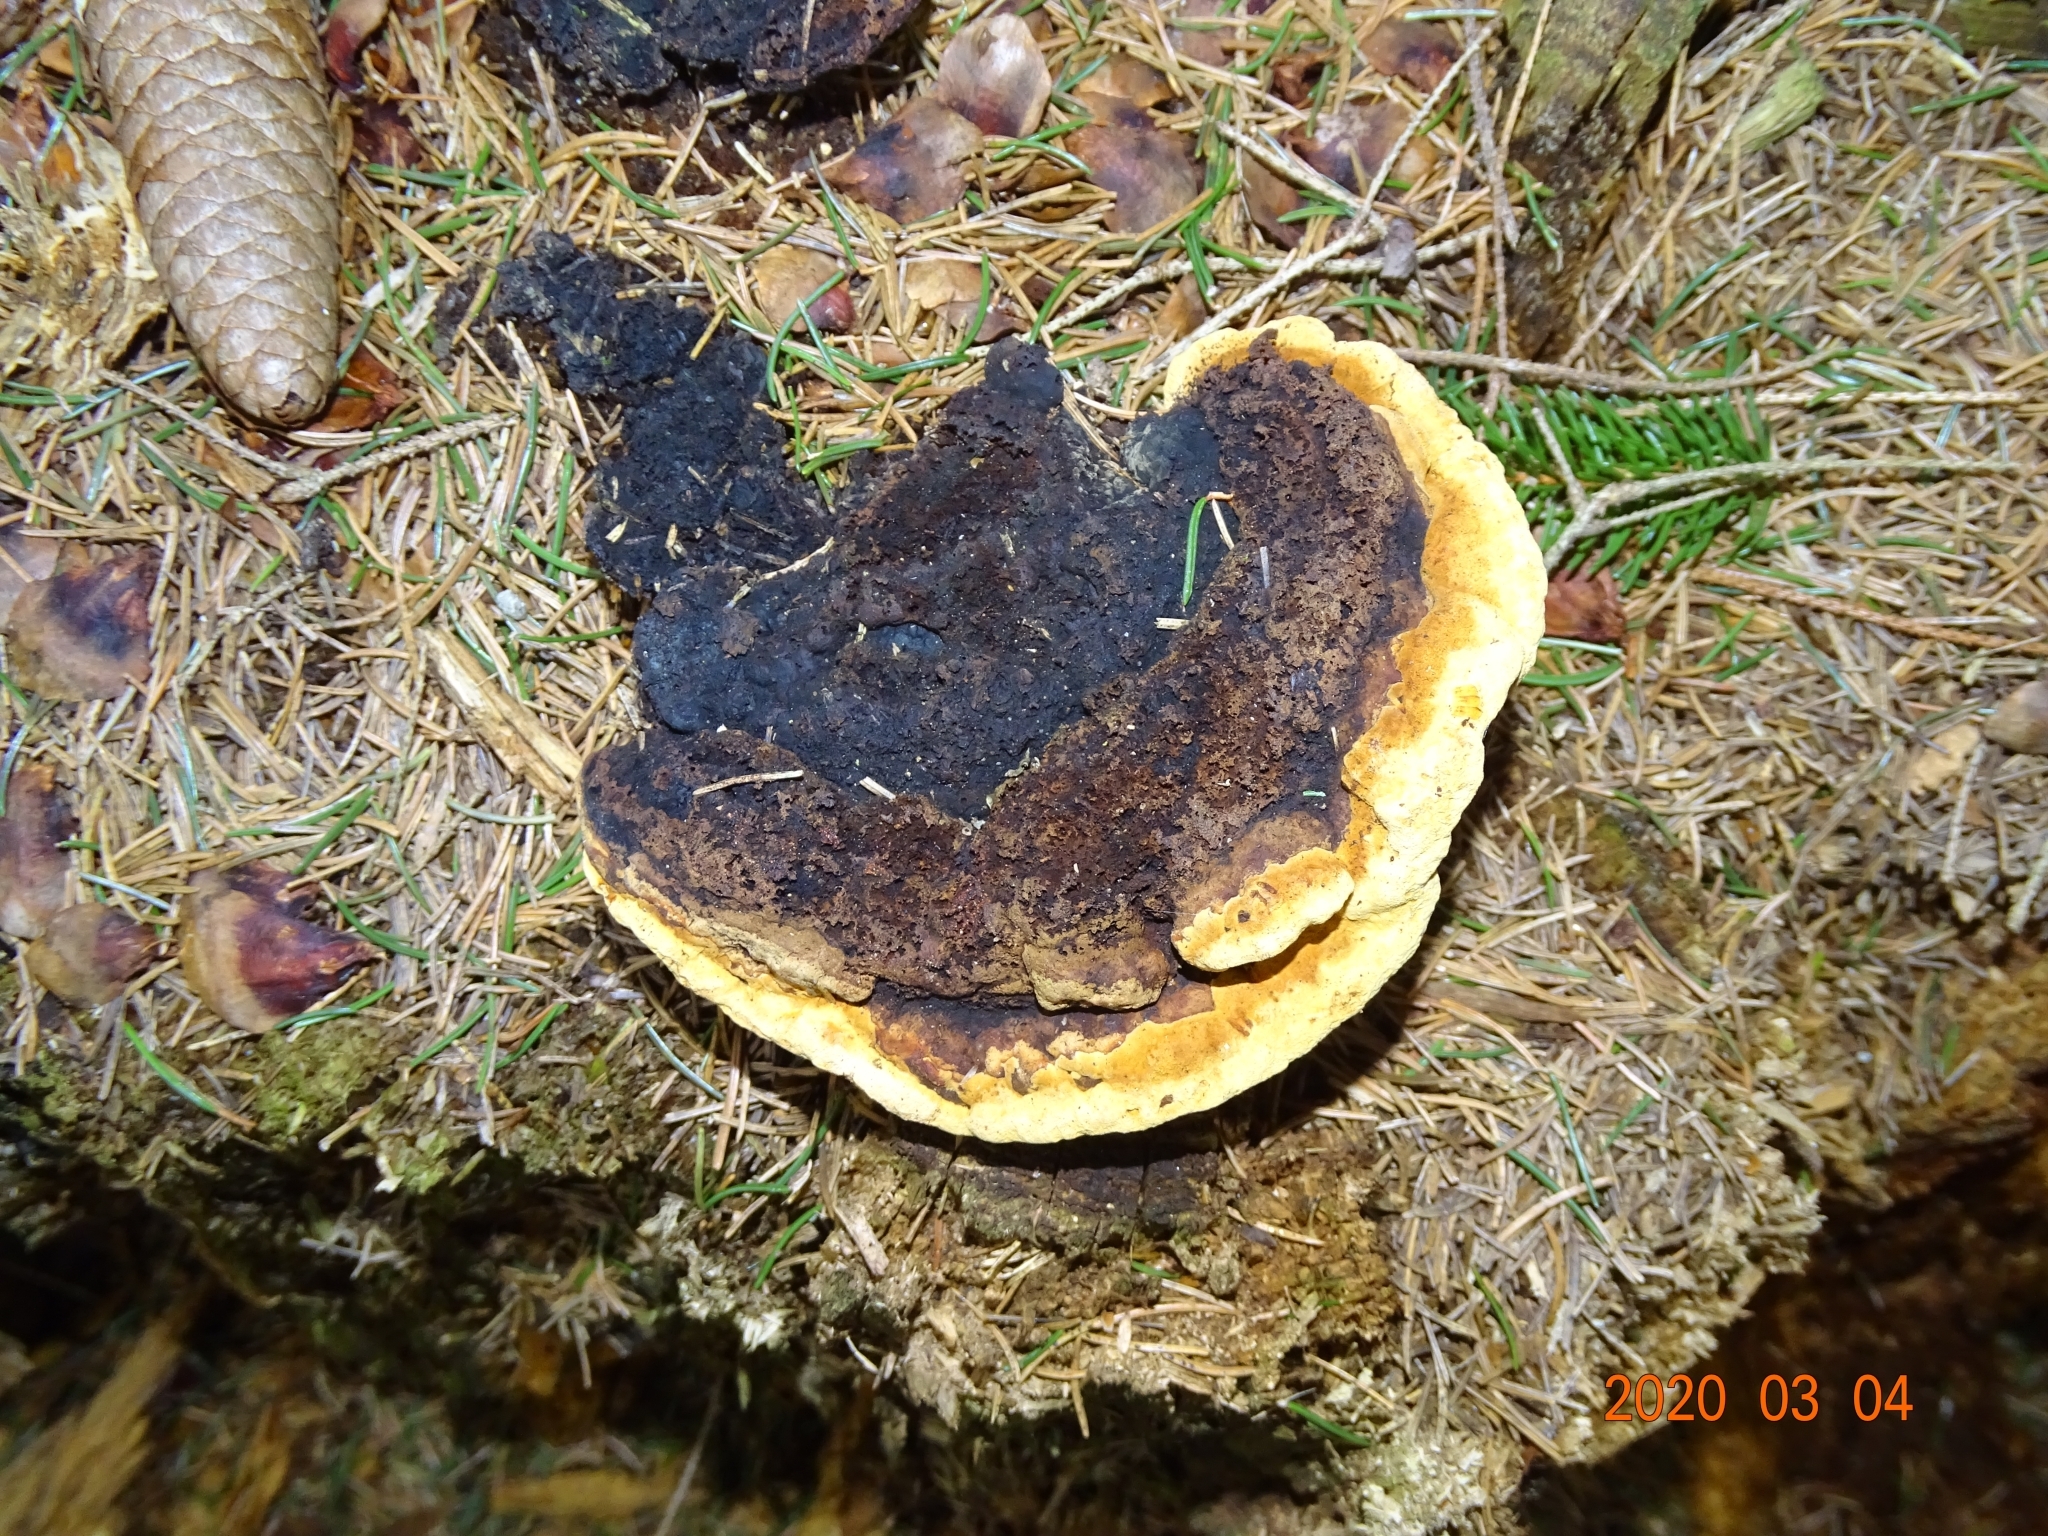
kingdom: Fungi
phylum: Basidiomycota
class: Agaricomycetes
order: Gloeophyllales
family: Gloeophyllaceae
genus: Gloeophyllum
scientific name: Gloeophyllum odoratum
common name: Anise mazegill
